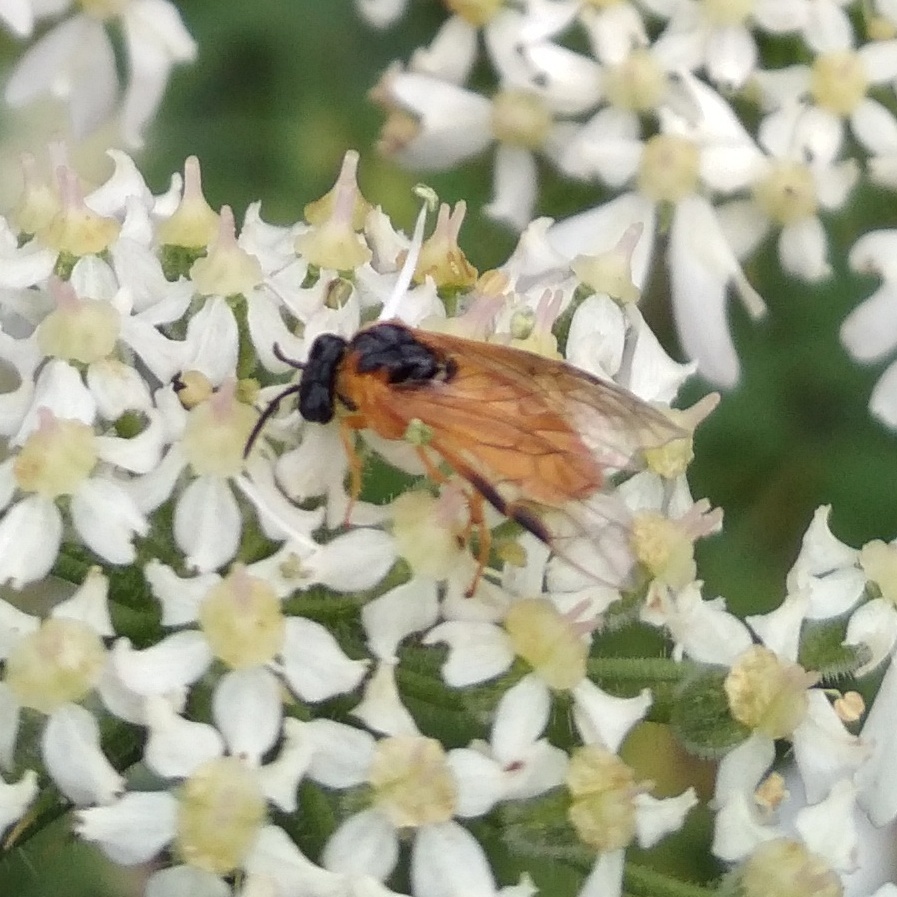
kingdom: Animalia
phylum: Arthropoda
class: Insecta
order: Hymenoptera
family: Tenthredinidae
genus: Selandria
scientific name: Selandria serva
